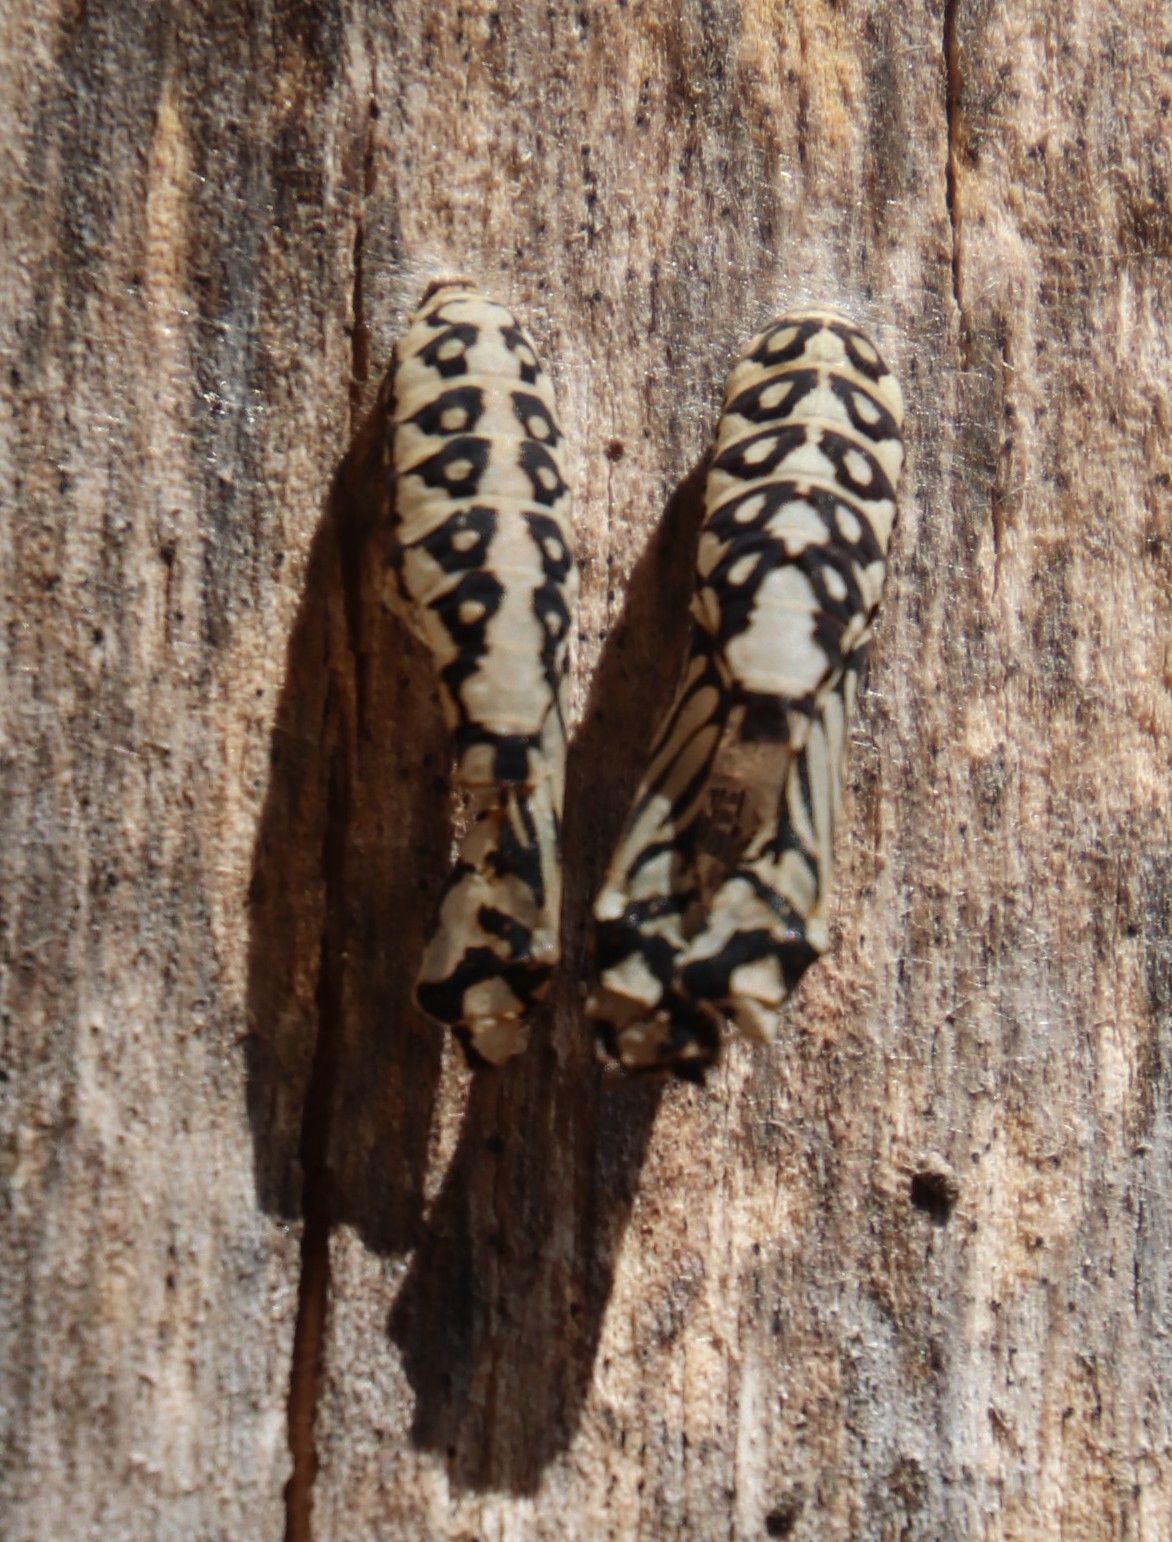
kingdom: Animalia
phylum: Arthropoda
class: Insecta
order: Lepidoptera
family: Nymphalidae
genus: Acraea
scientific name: Acraea horta
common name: Garden acraea
